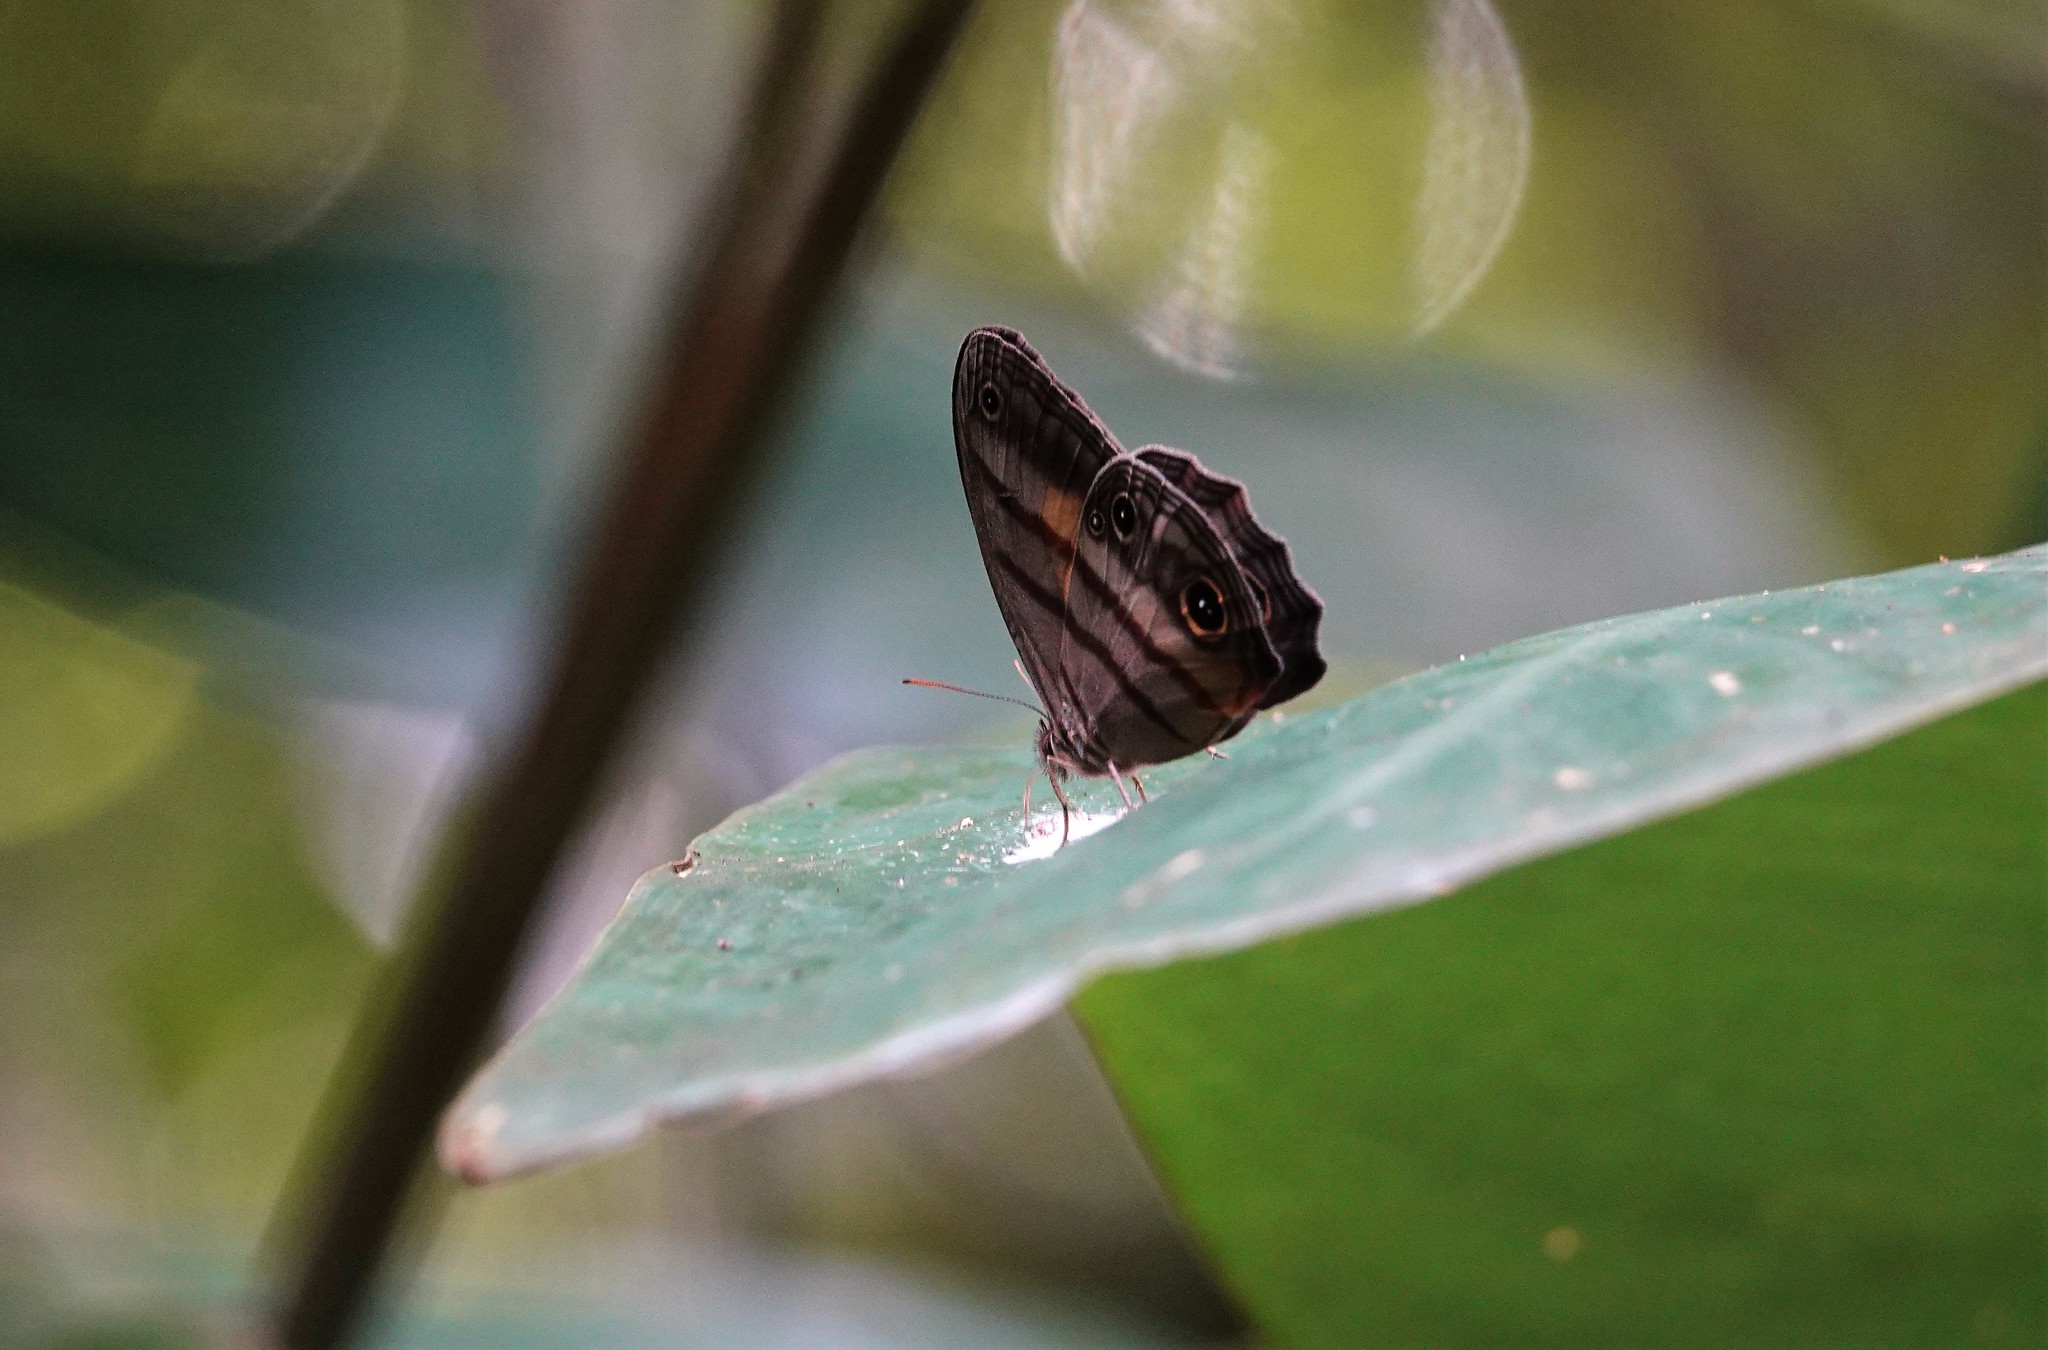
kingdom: Animalia
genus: Modestia
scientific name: Modestia
